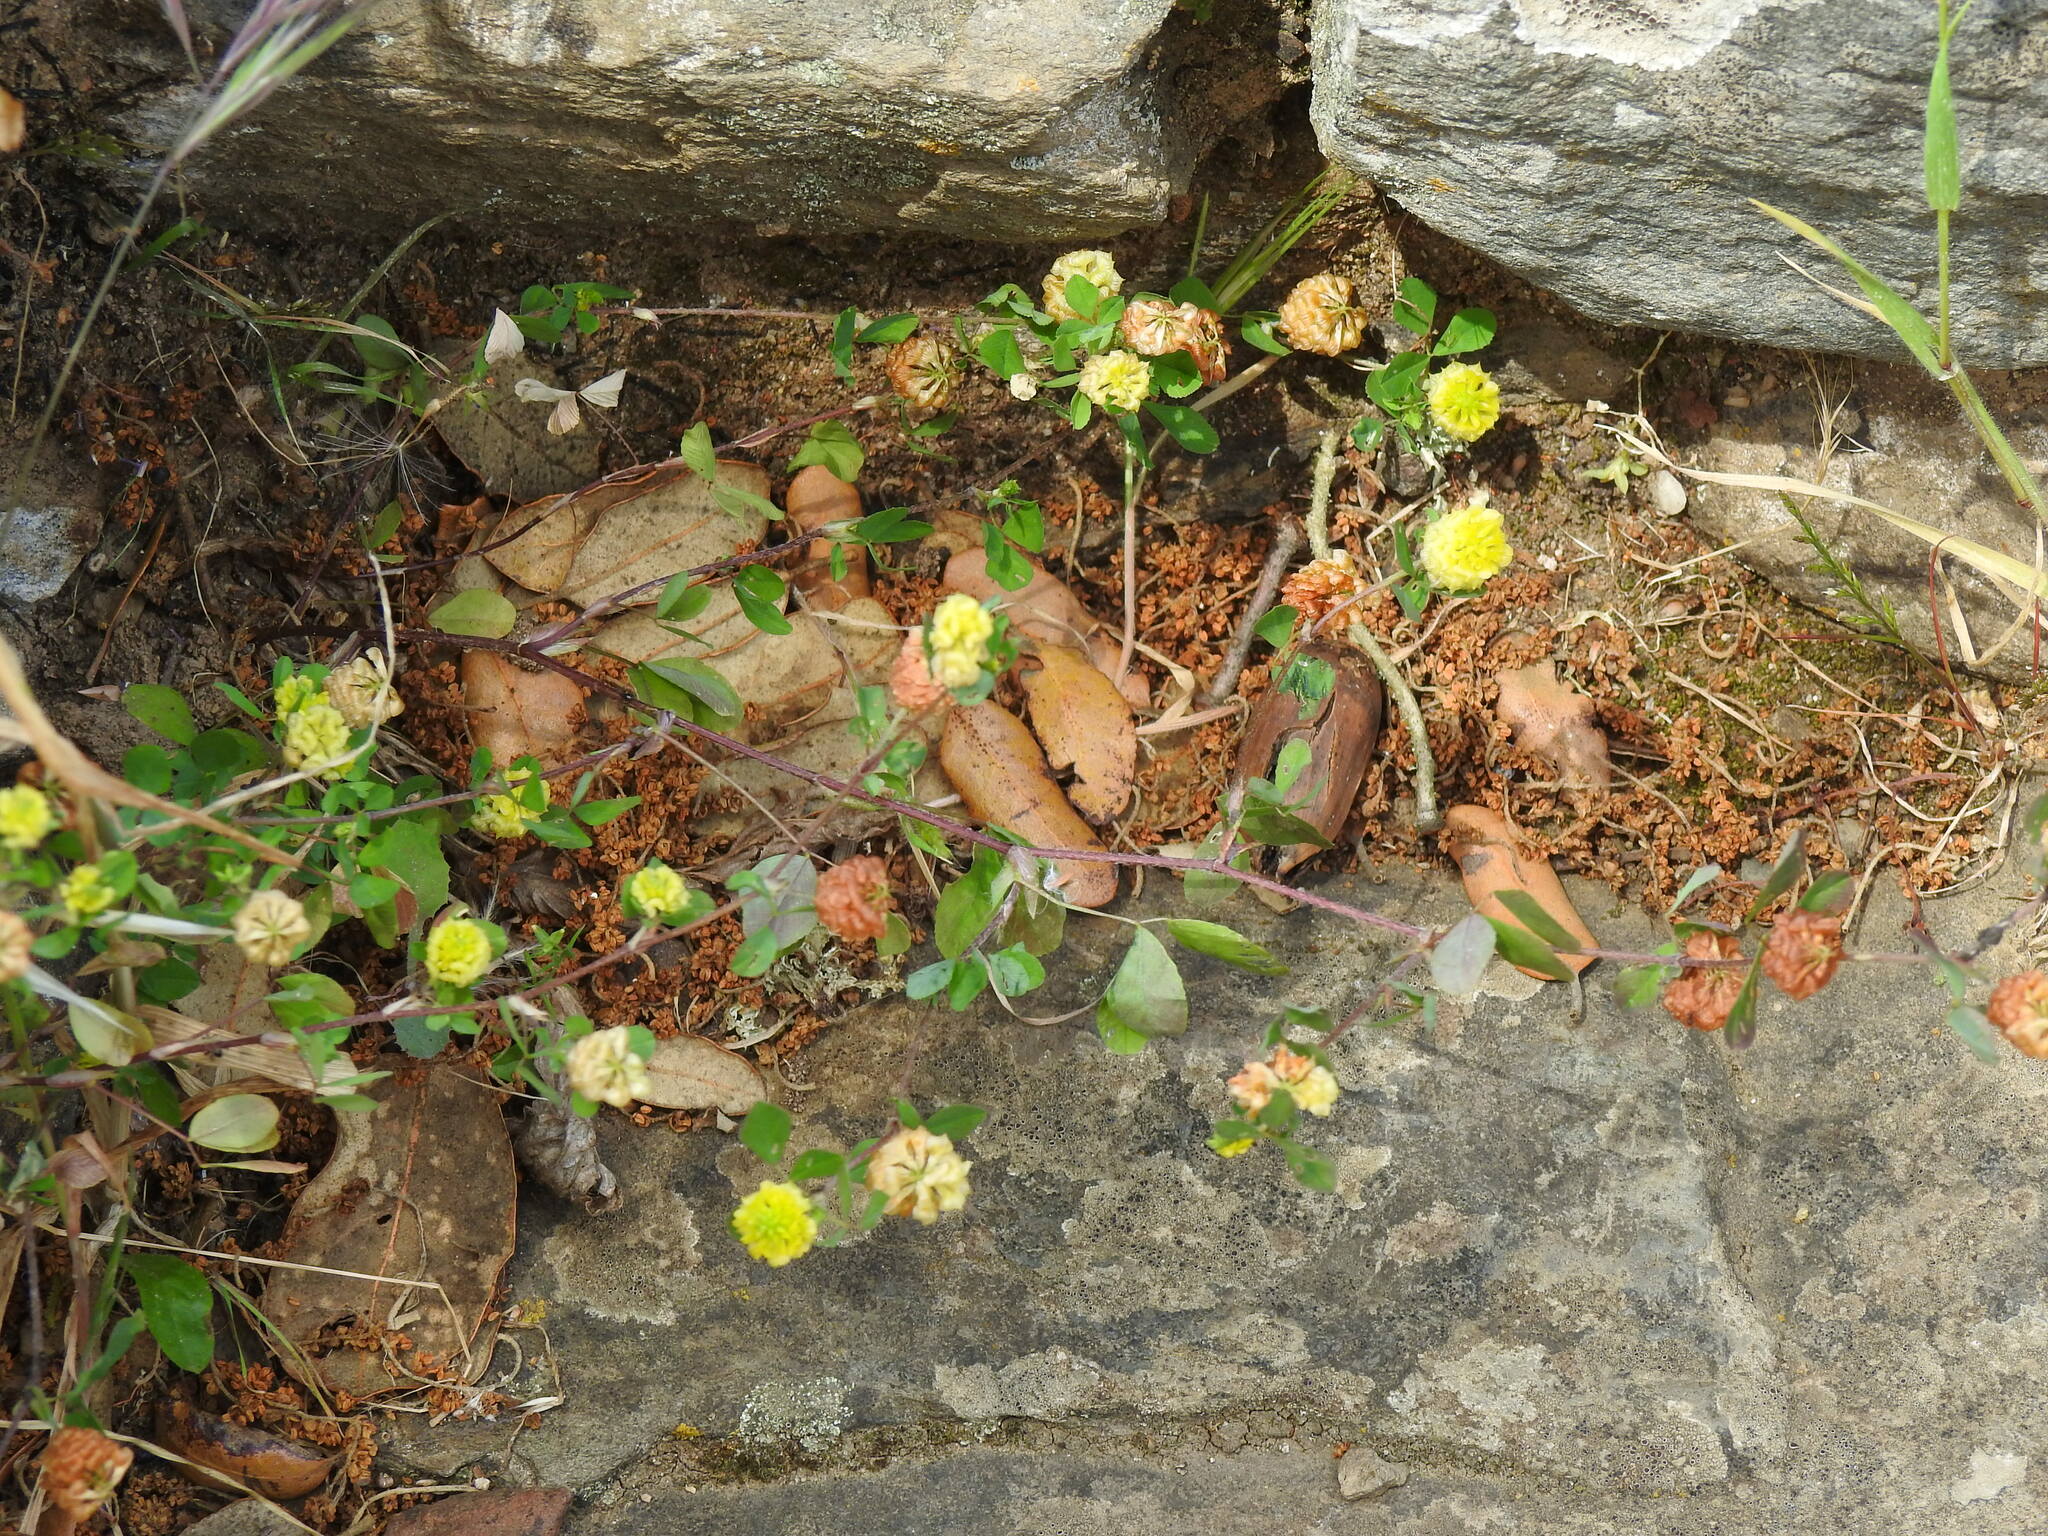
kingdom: Plantae
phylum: Tracheophyta
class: Magnoliopsida
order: Fabales
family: Fabaceae
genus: Trifolium
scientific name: Trifolium campestre
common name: Field clover
